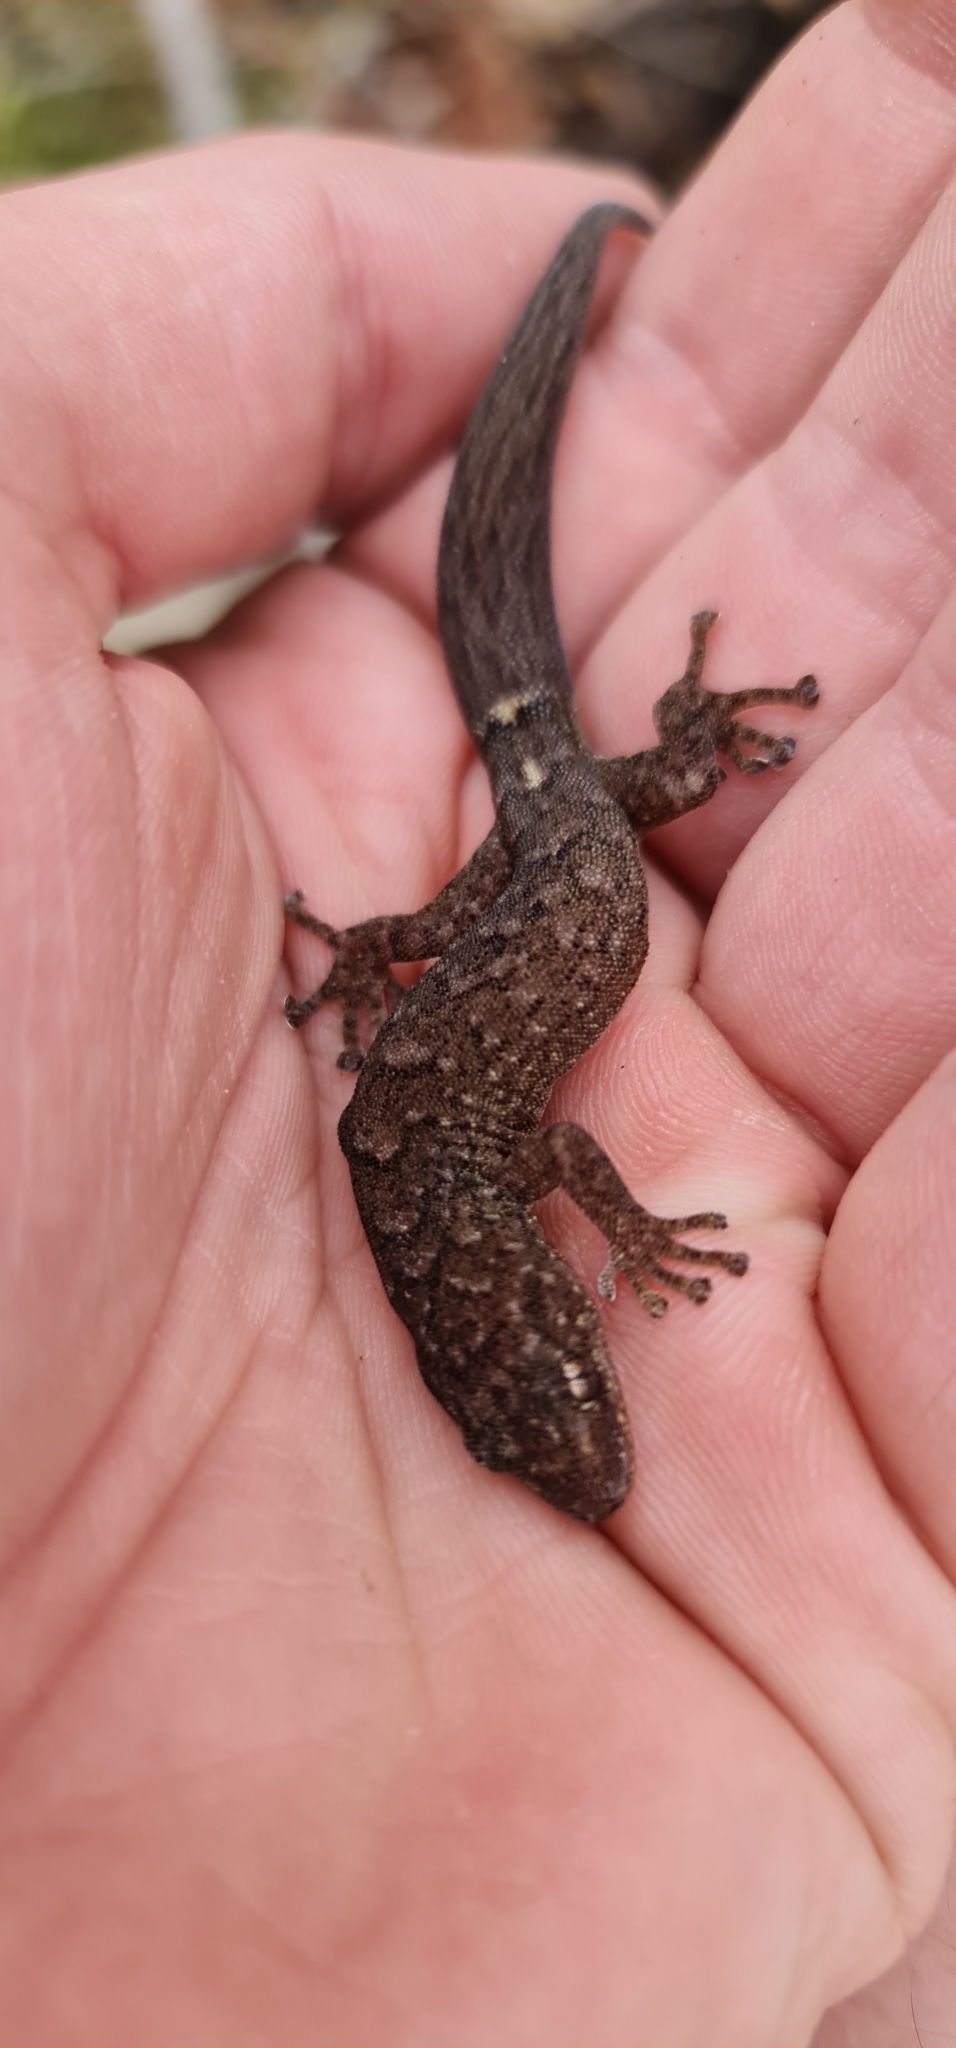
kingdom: Animalia
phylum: Chordata
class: Squamata
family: Gekkonidae
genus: Christinus
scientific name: Christinus marmoratus
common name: Marbled gecko
